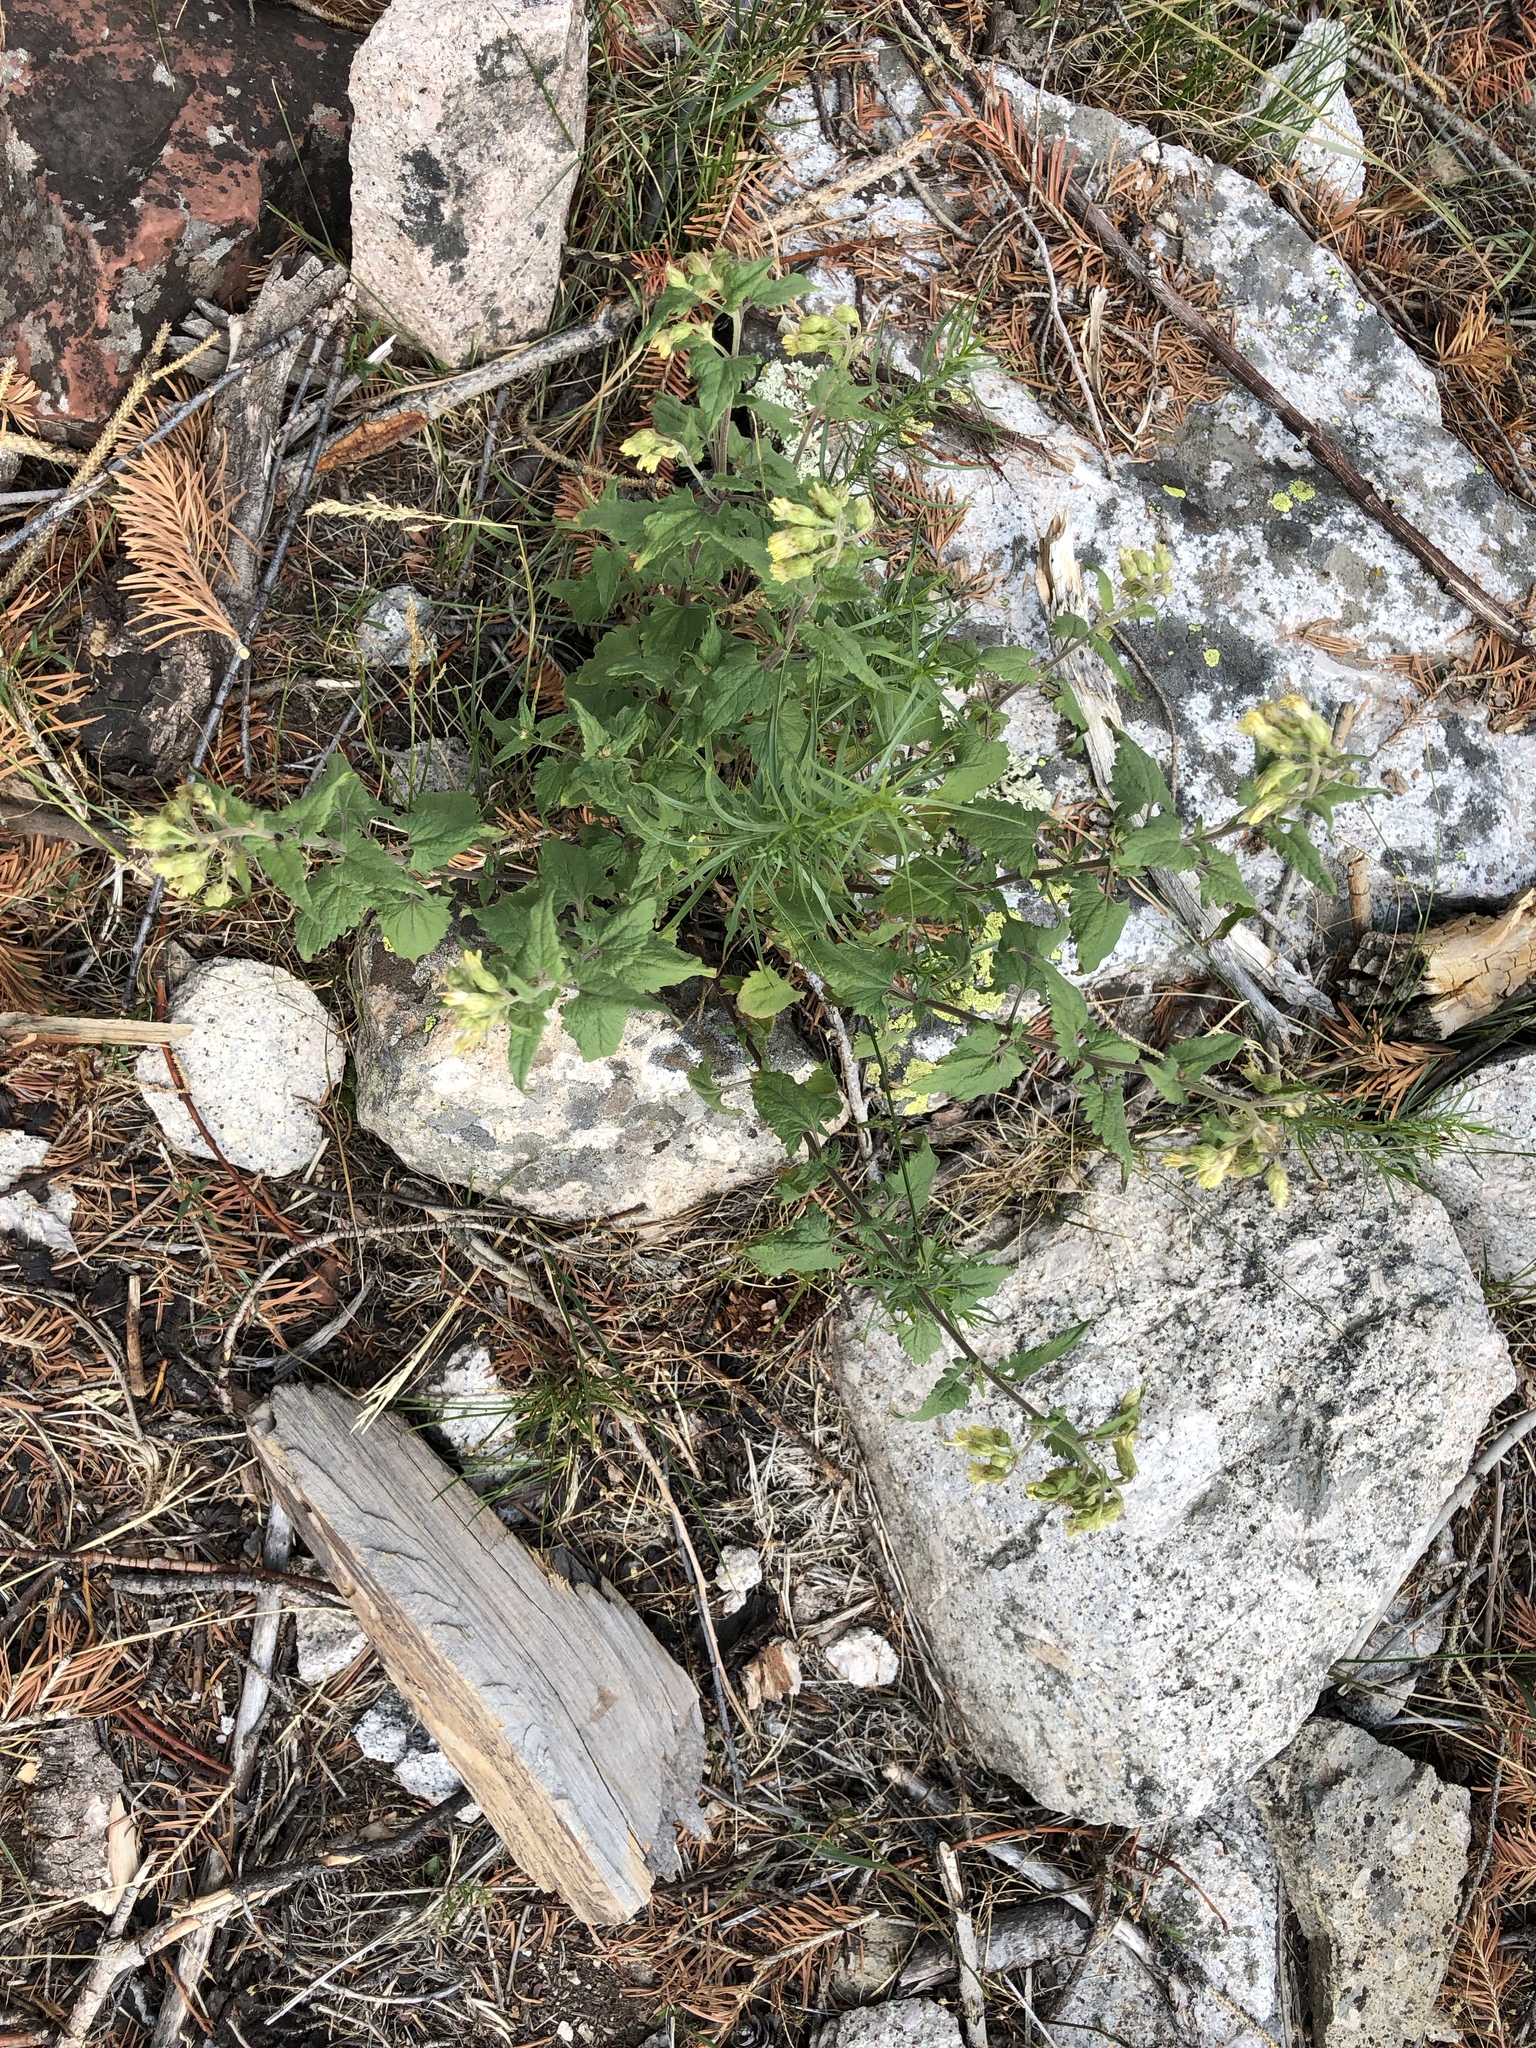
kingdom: Plantae
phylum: Tracheophyta
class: Magnoliopsida
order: Asterales
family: Asteraceae
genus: Brickellia
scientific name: Brickellia grandiflora
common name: Large-flowered brickellia
